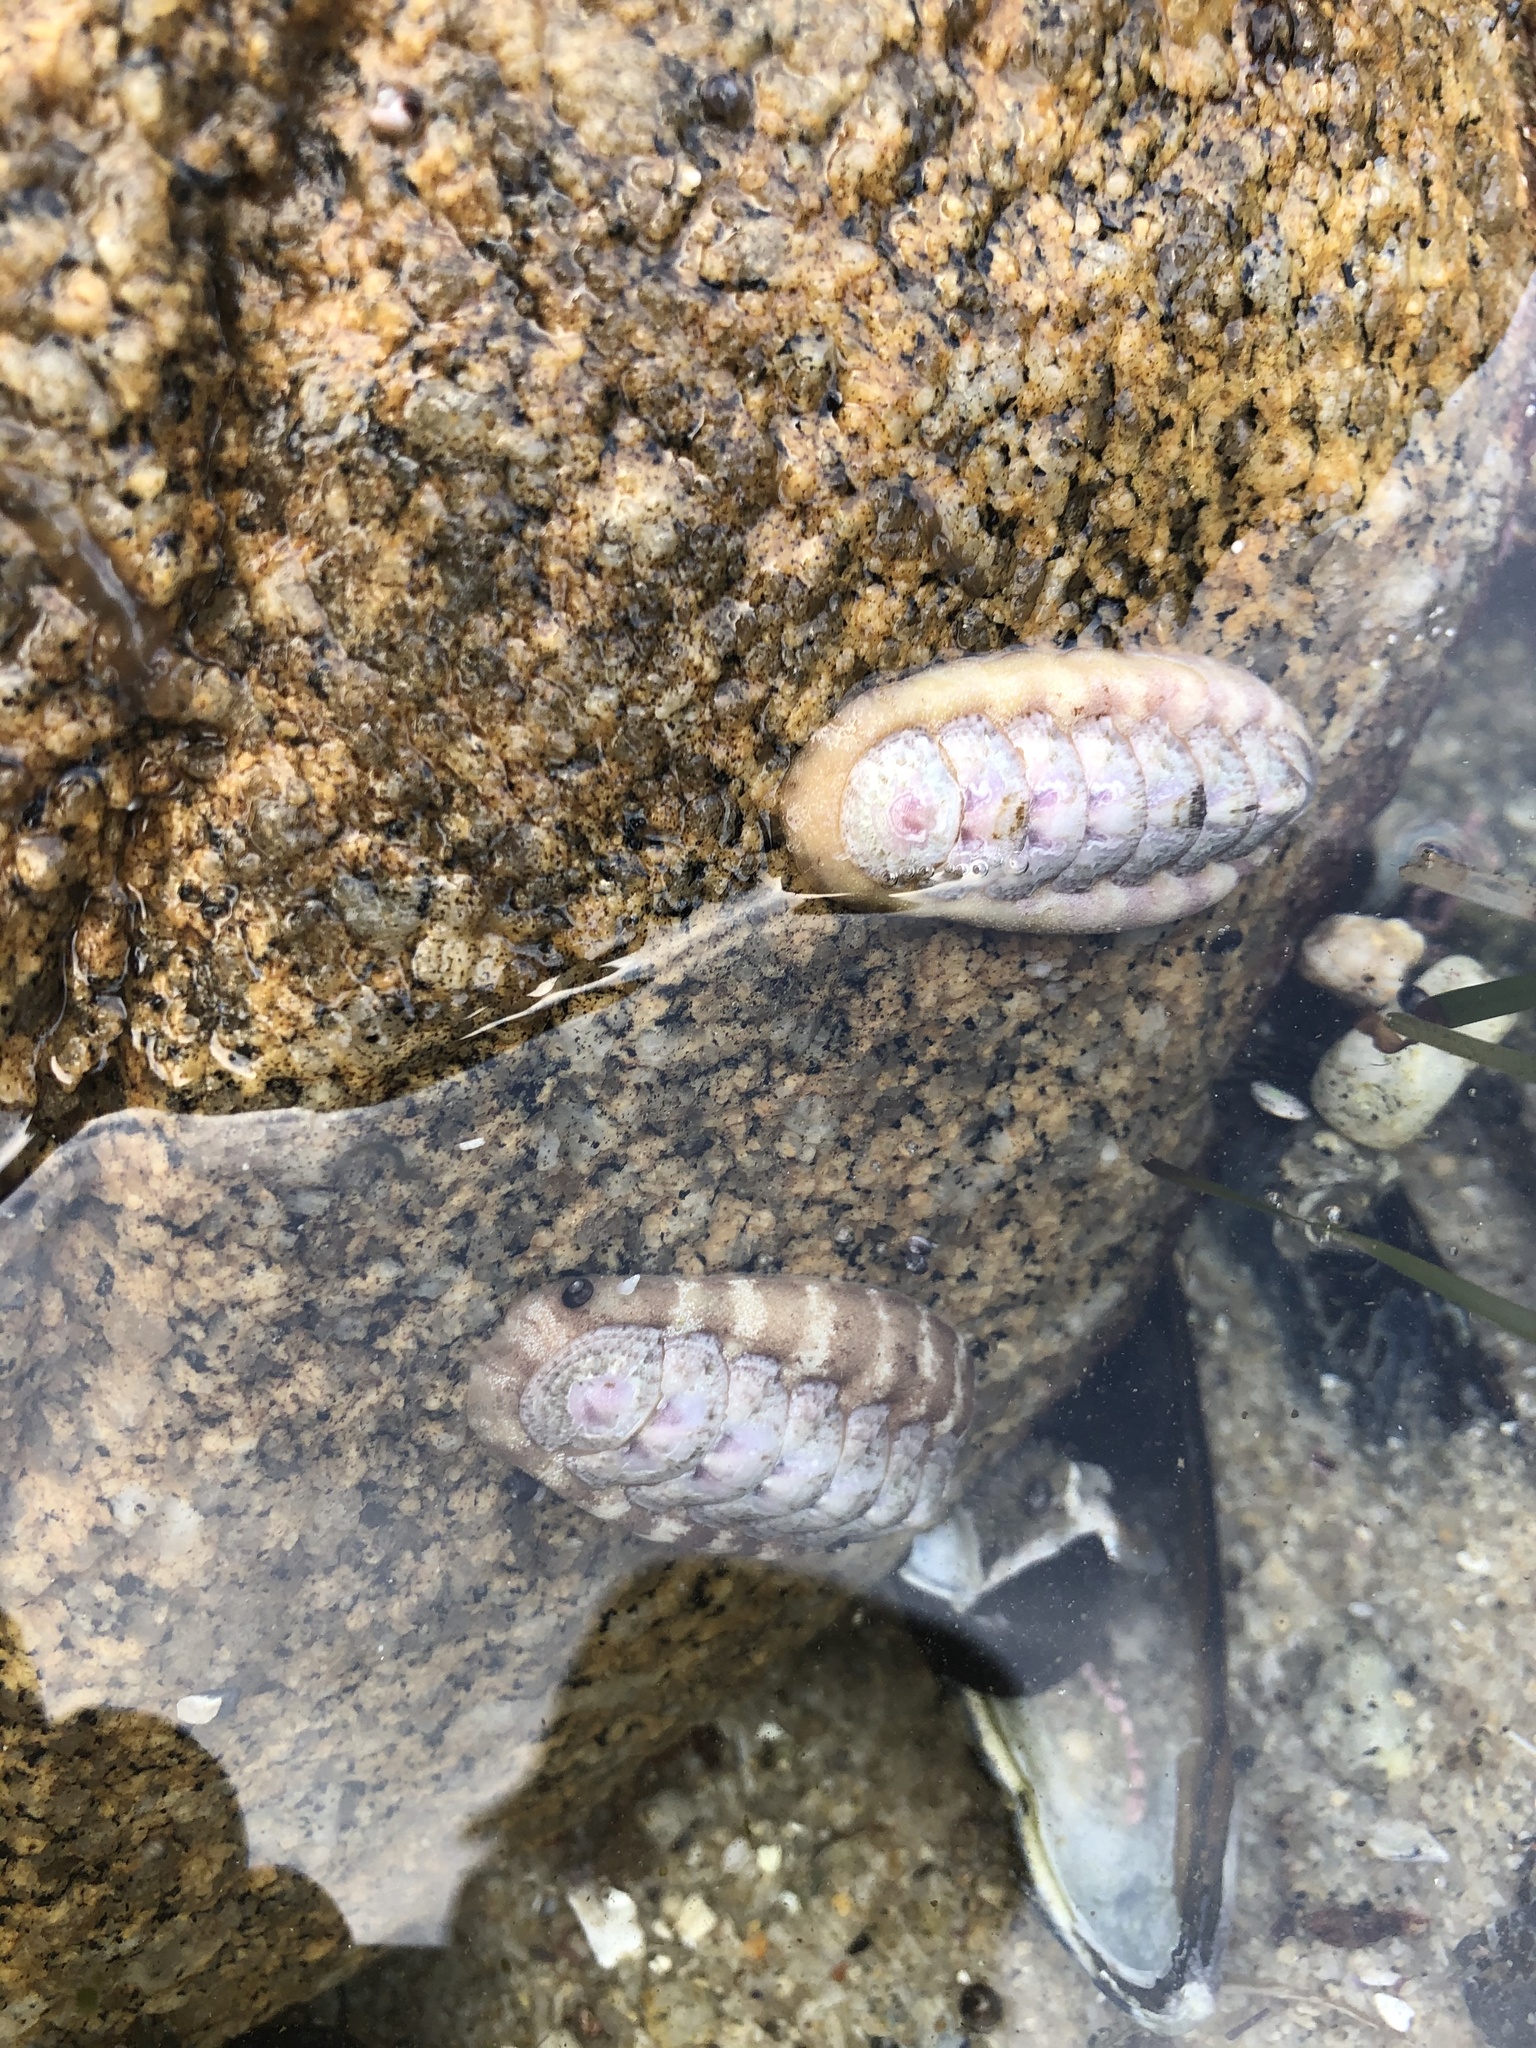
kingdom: Animalia
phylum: Mollusca
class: Polyplacophora
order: Chitonida
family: Ischnochitonidae
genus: Stenoplax
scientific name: Stenoplax heathiana
